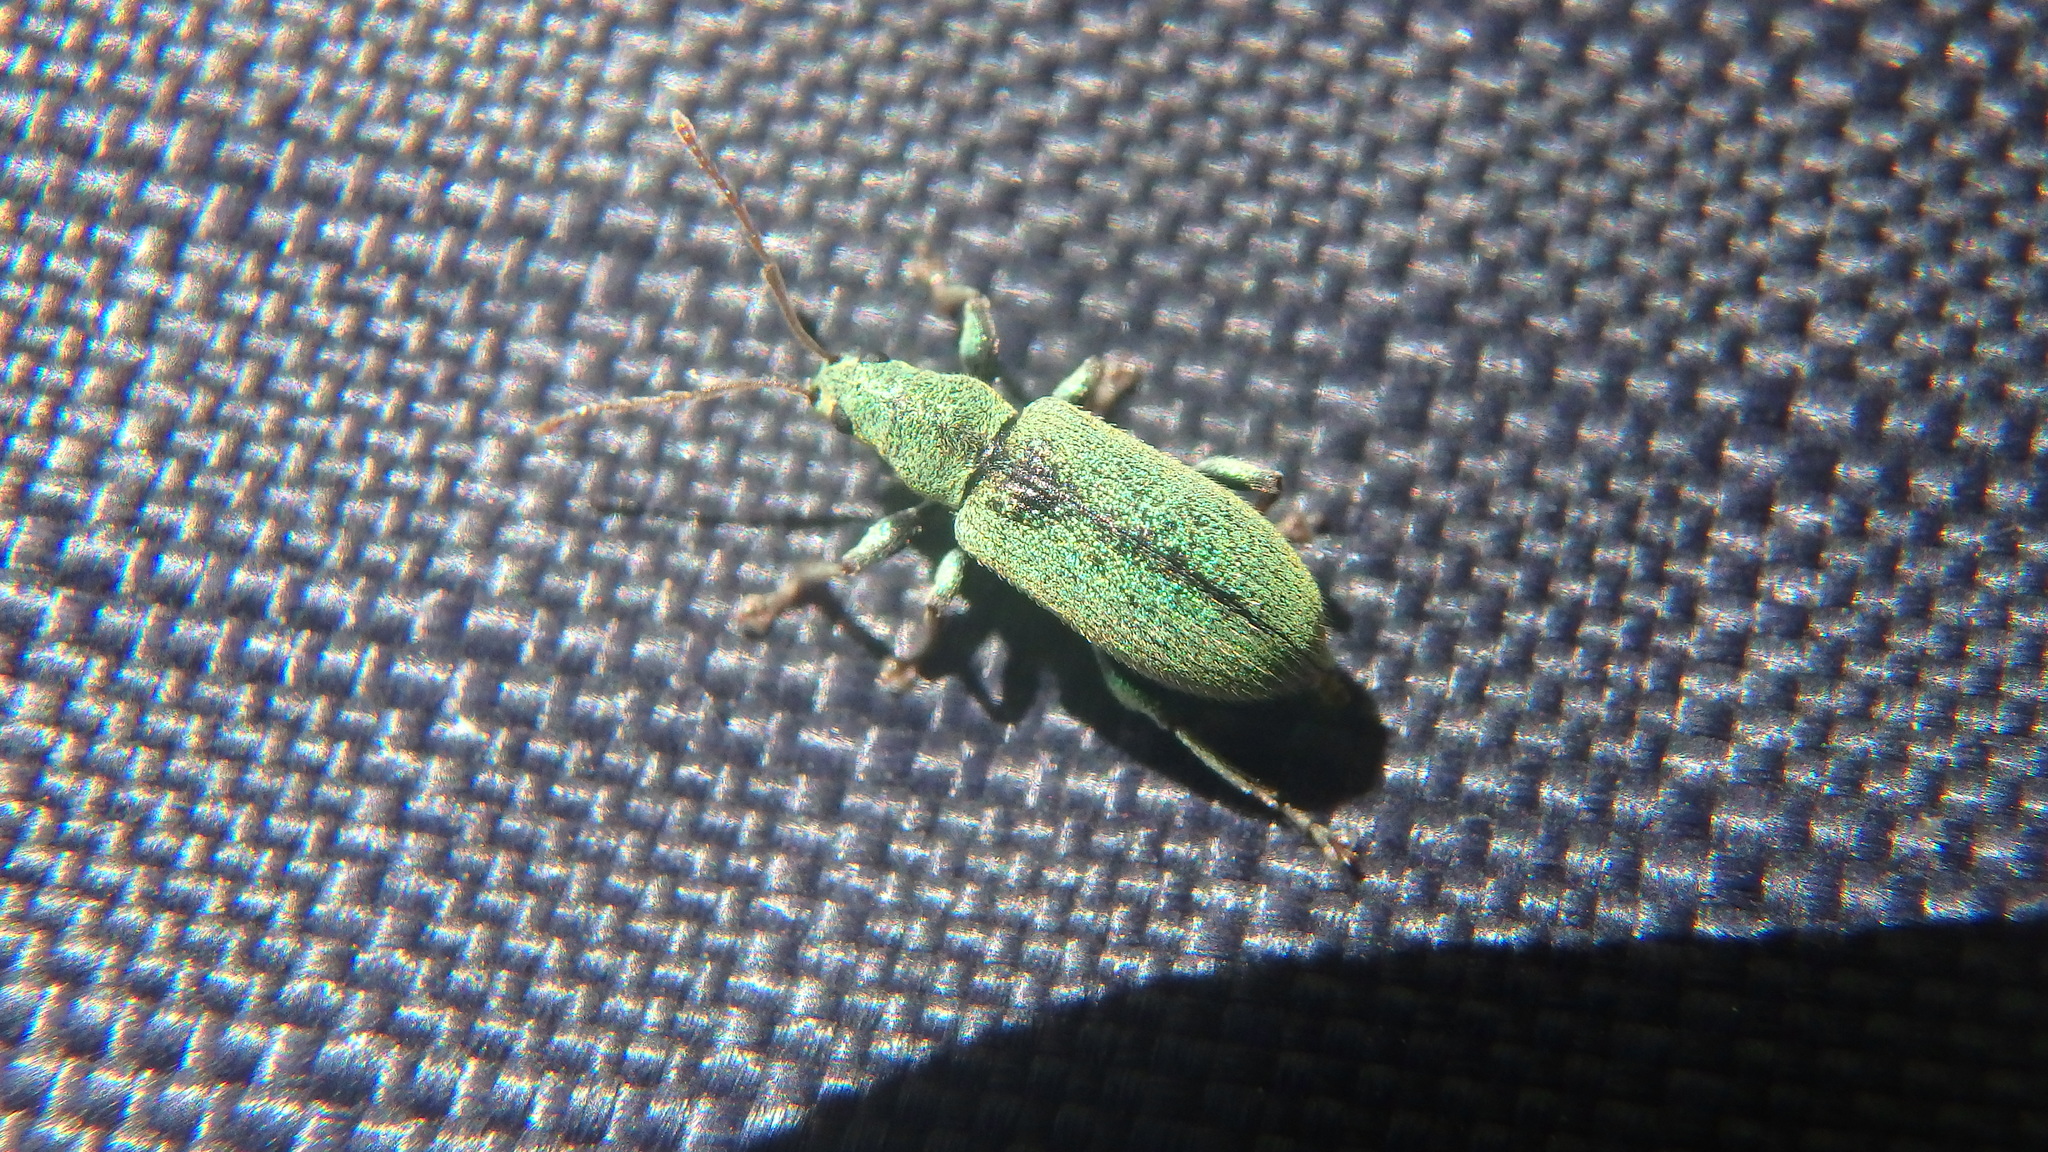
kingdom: Animalia
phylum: Arthropoda
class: Insecta
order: Coleoptera
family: Curculionidae
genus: Phyllobius
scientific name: Phyllobius argentatus
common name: Silver-green leaf weevil
